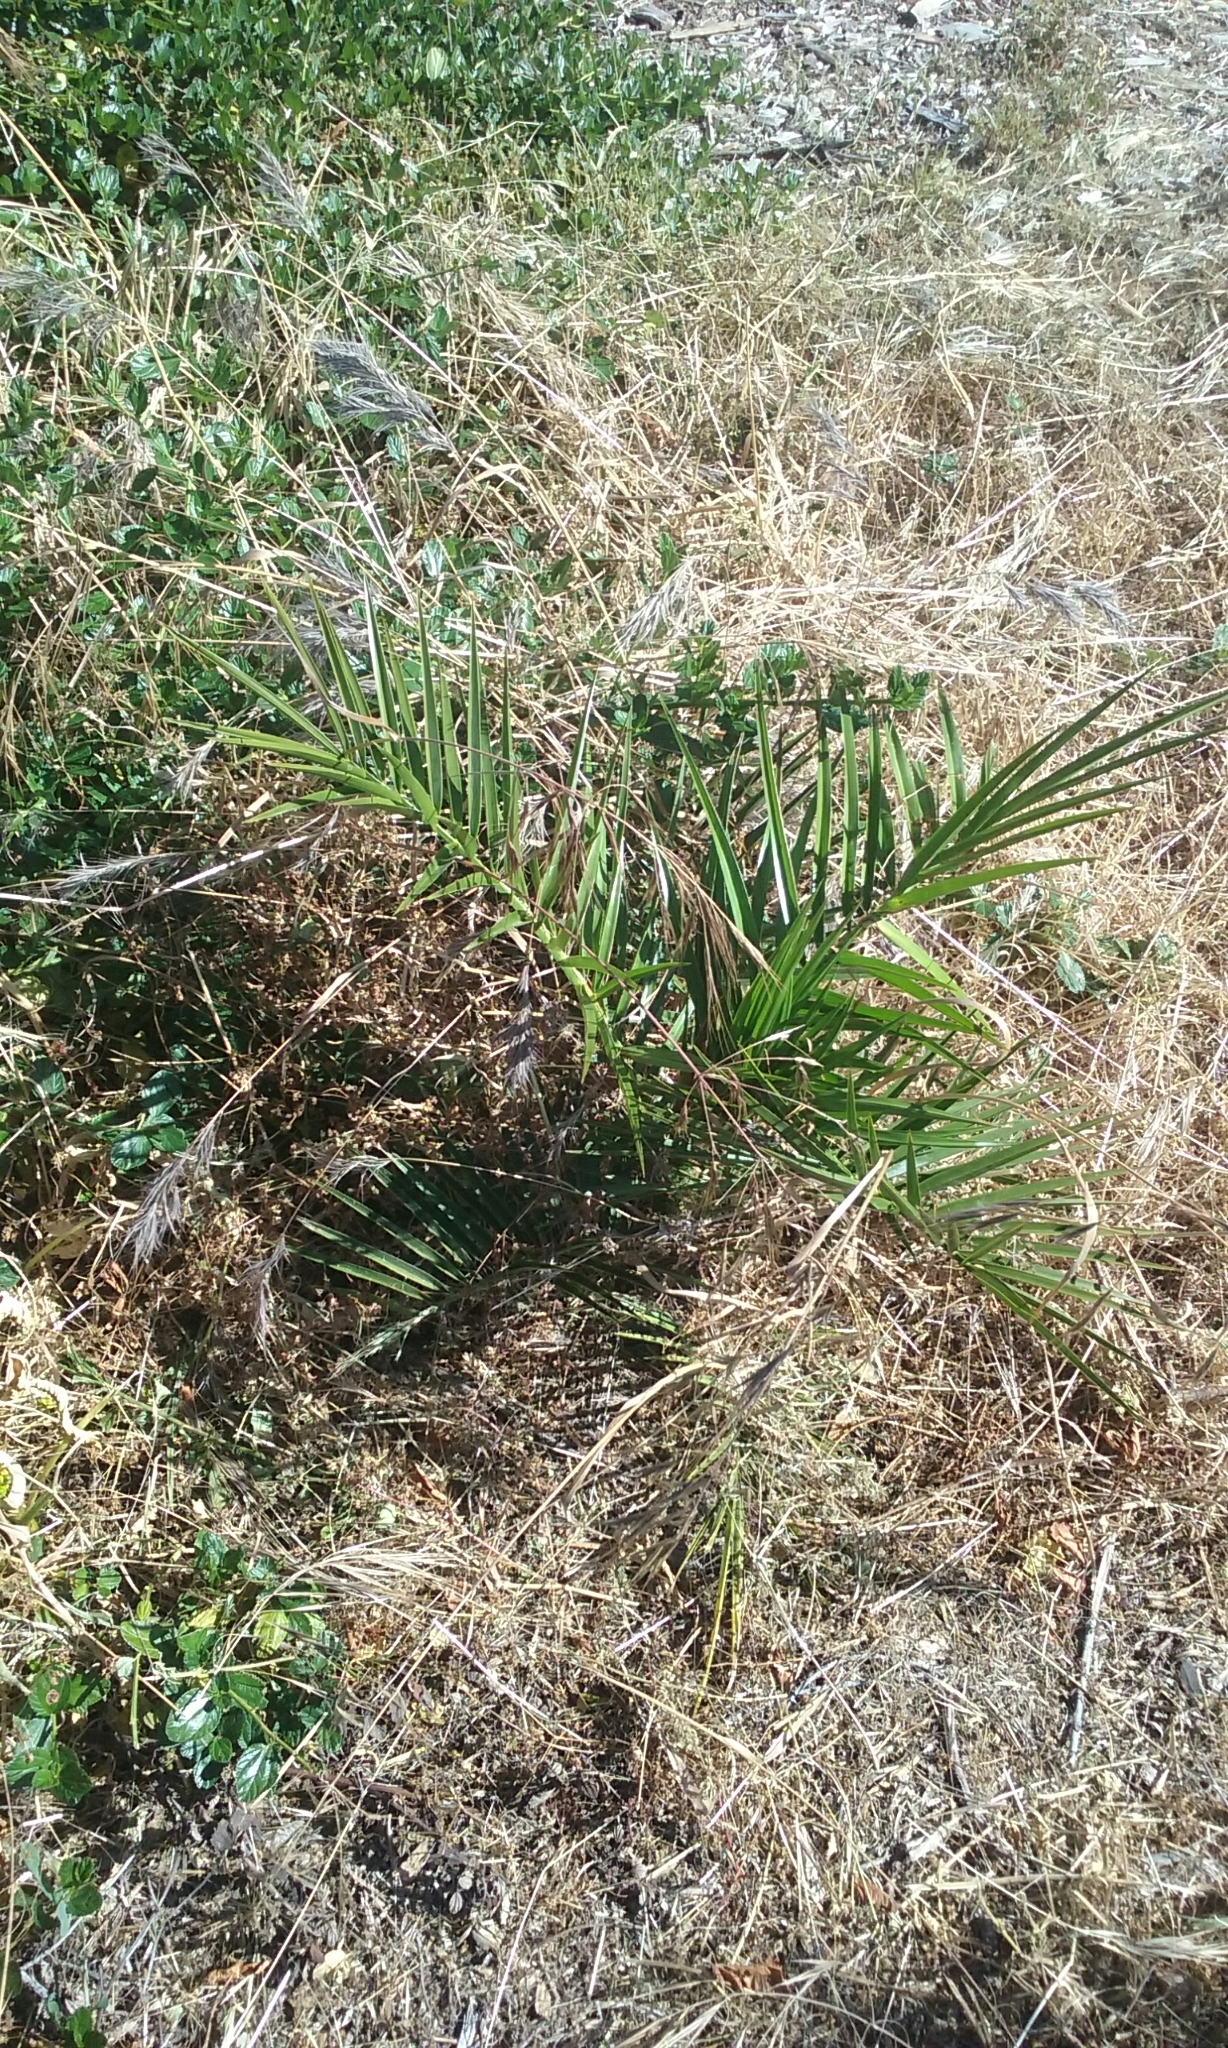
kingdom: Plantae
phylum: Tracheophyta
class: Liliopsida
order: Arecales
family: Arecaceae
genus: Phoenix
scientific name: Phoenix canariensis
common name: Canary island date palm
